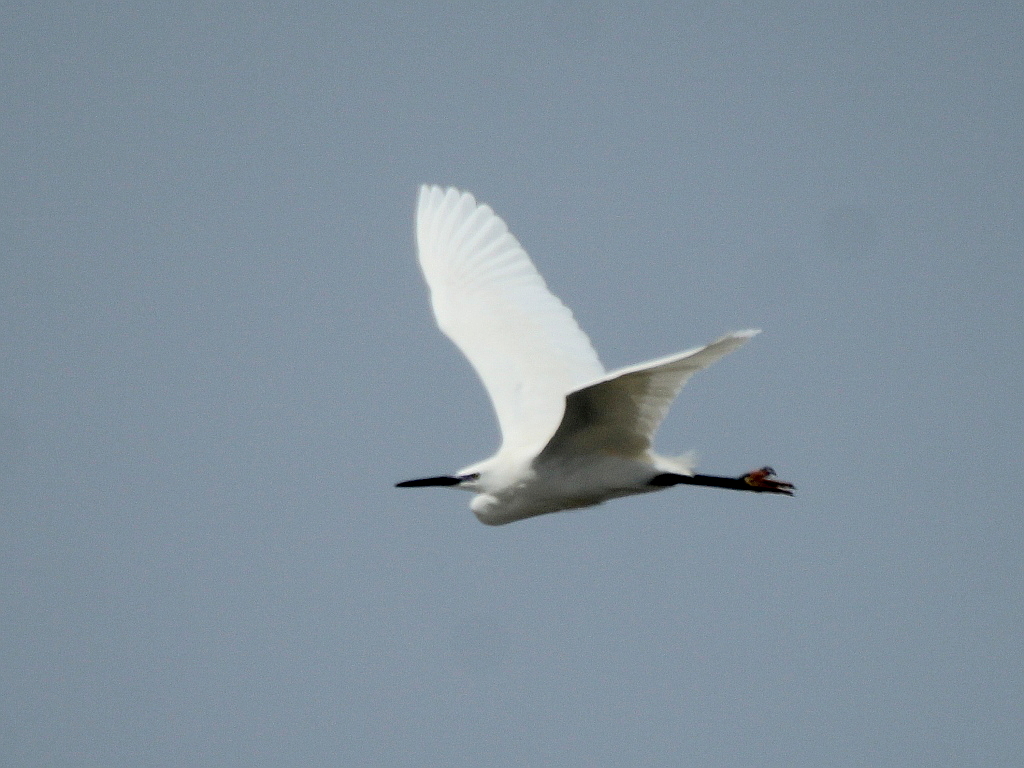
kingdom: Animalia
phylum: Chordata
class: Aves
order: Pelecaniformes
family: Ardeidae
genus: Egretta
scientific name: Egretta garzetta
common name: Little egret
